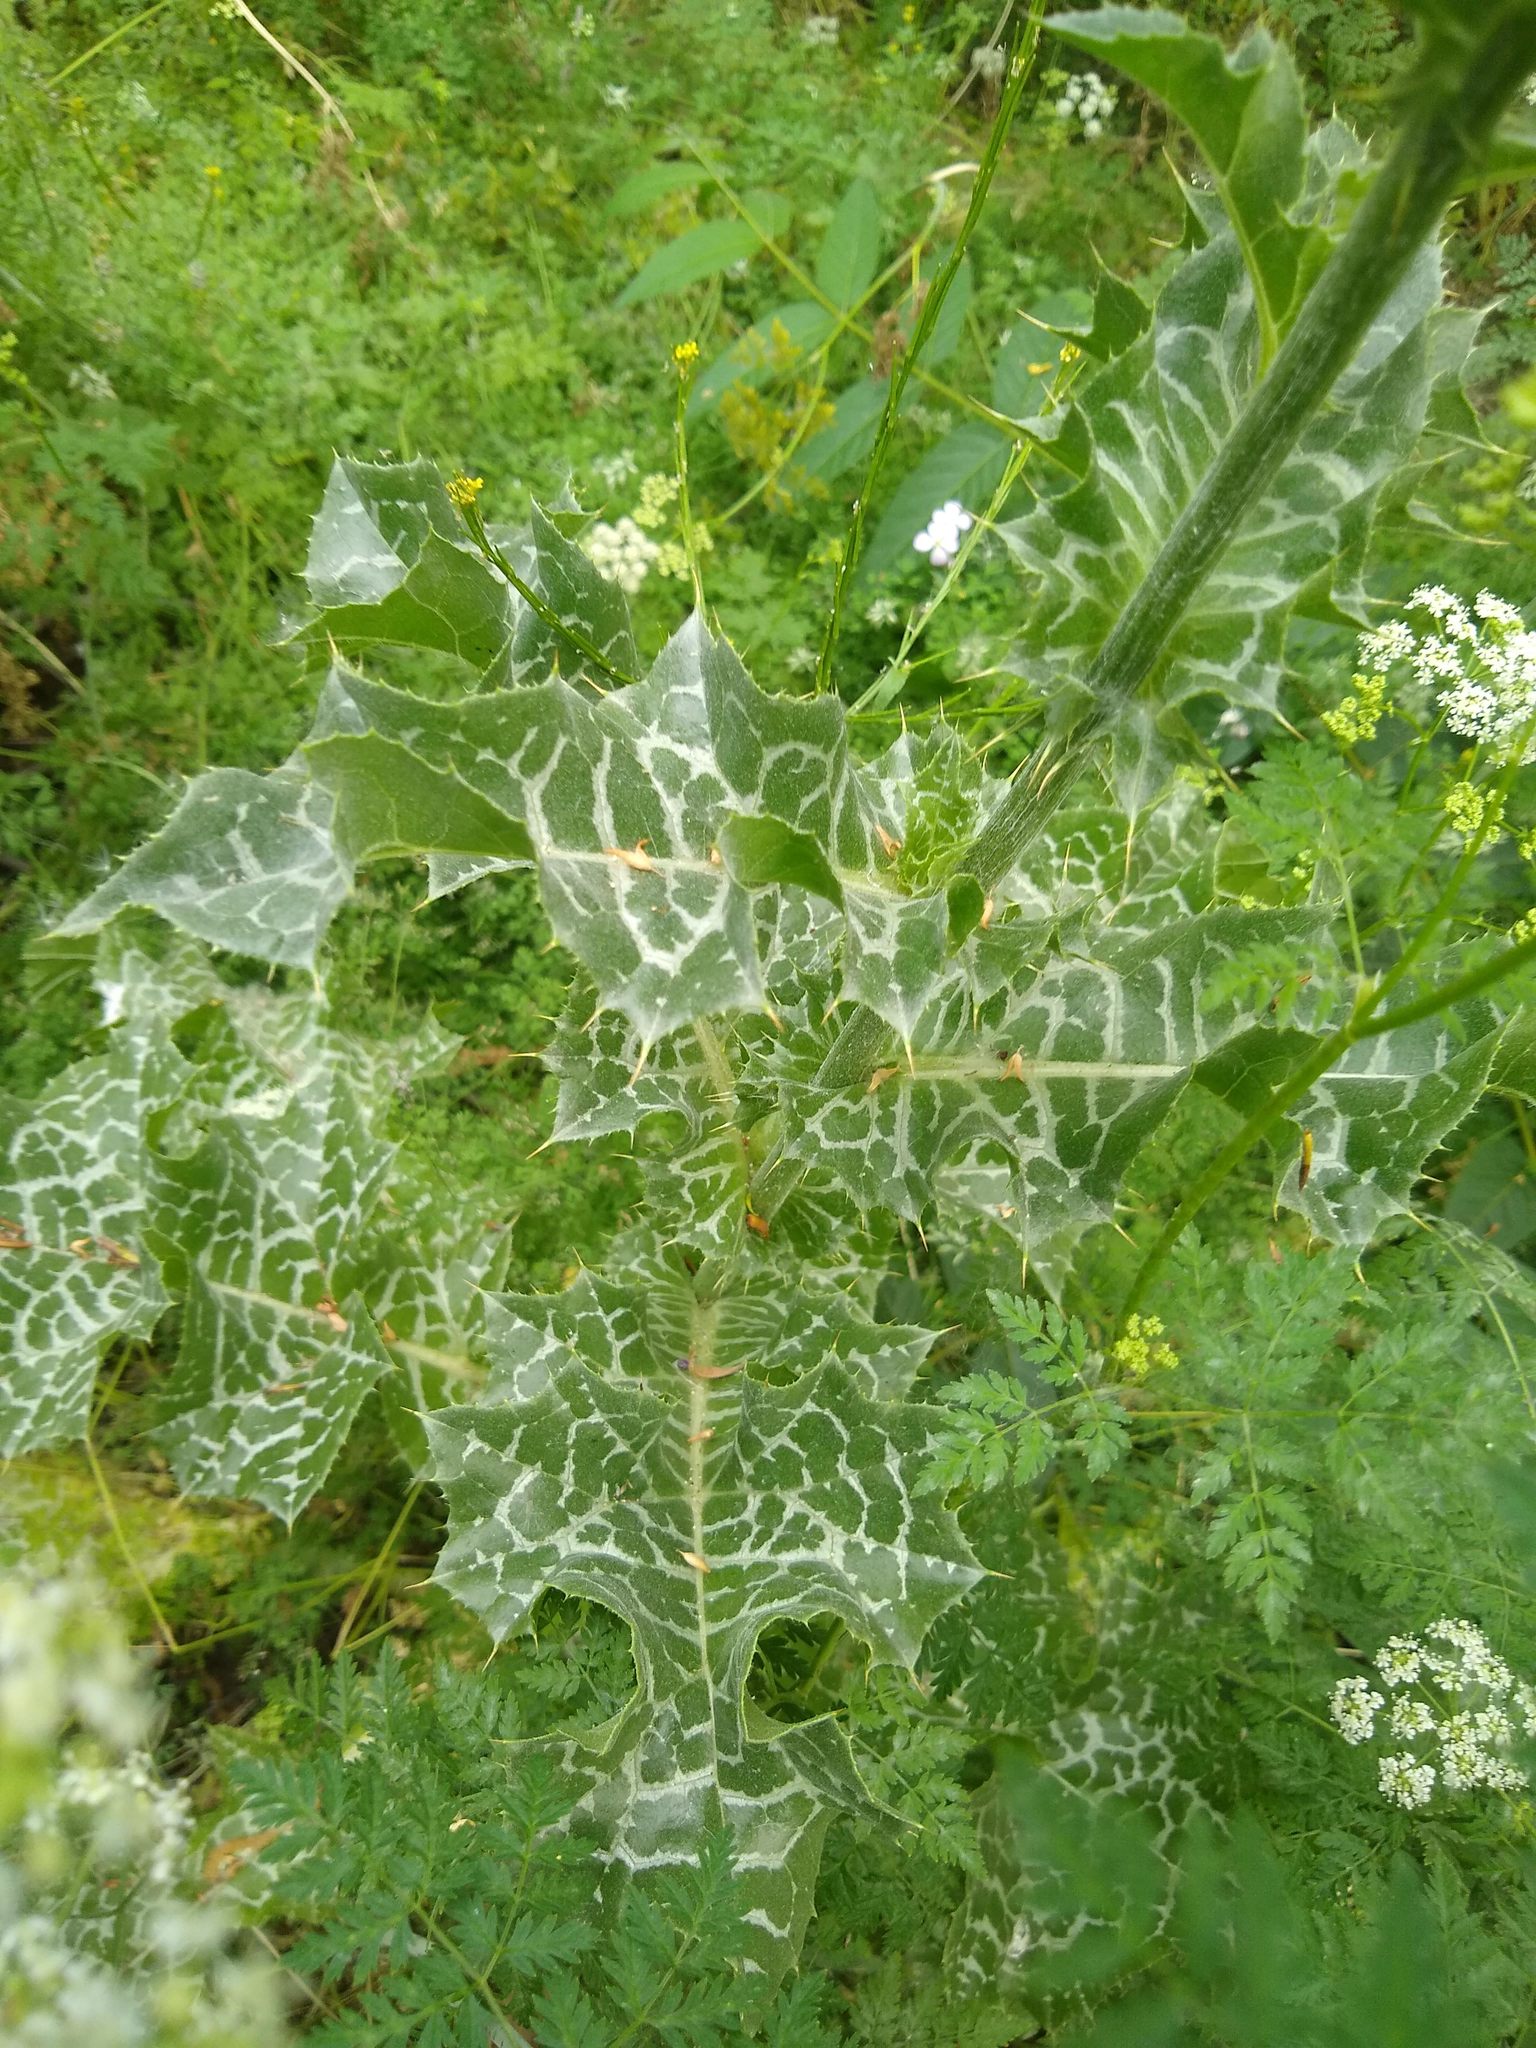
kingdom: Plantae
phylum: Tracheophyta
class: Magnoliopsida
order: Asterales
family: Asteraceae
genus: Silybum
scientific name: Silybum marianum
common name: Milk thistle
